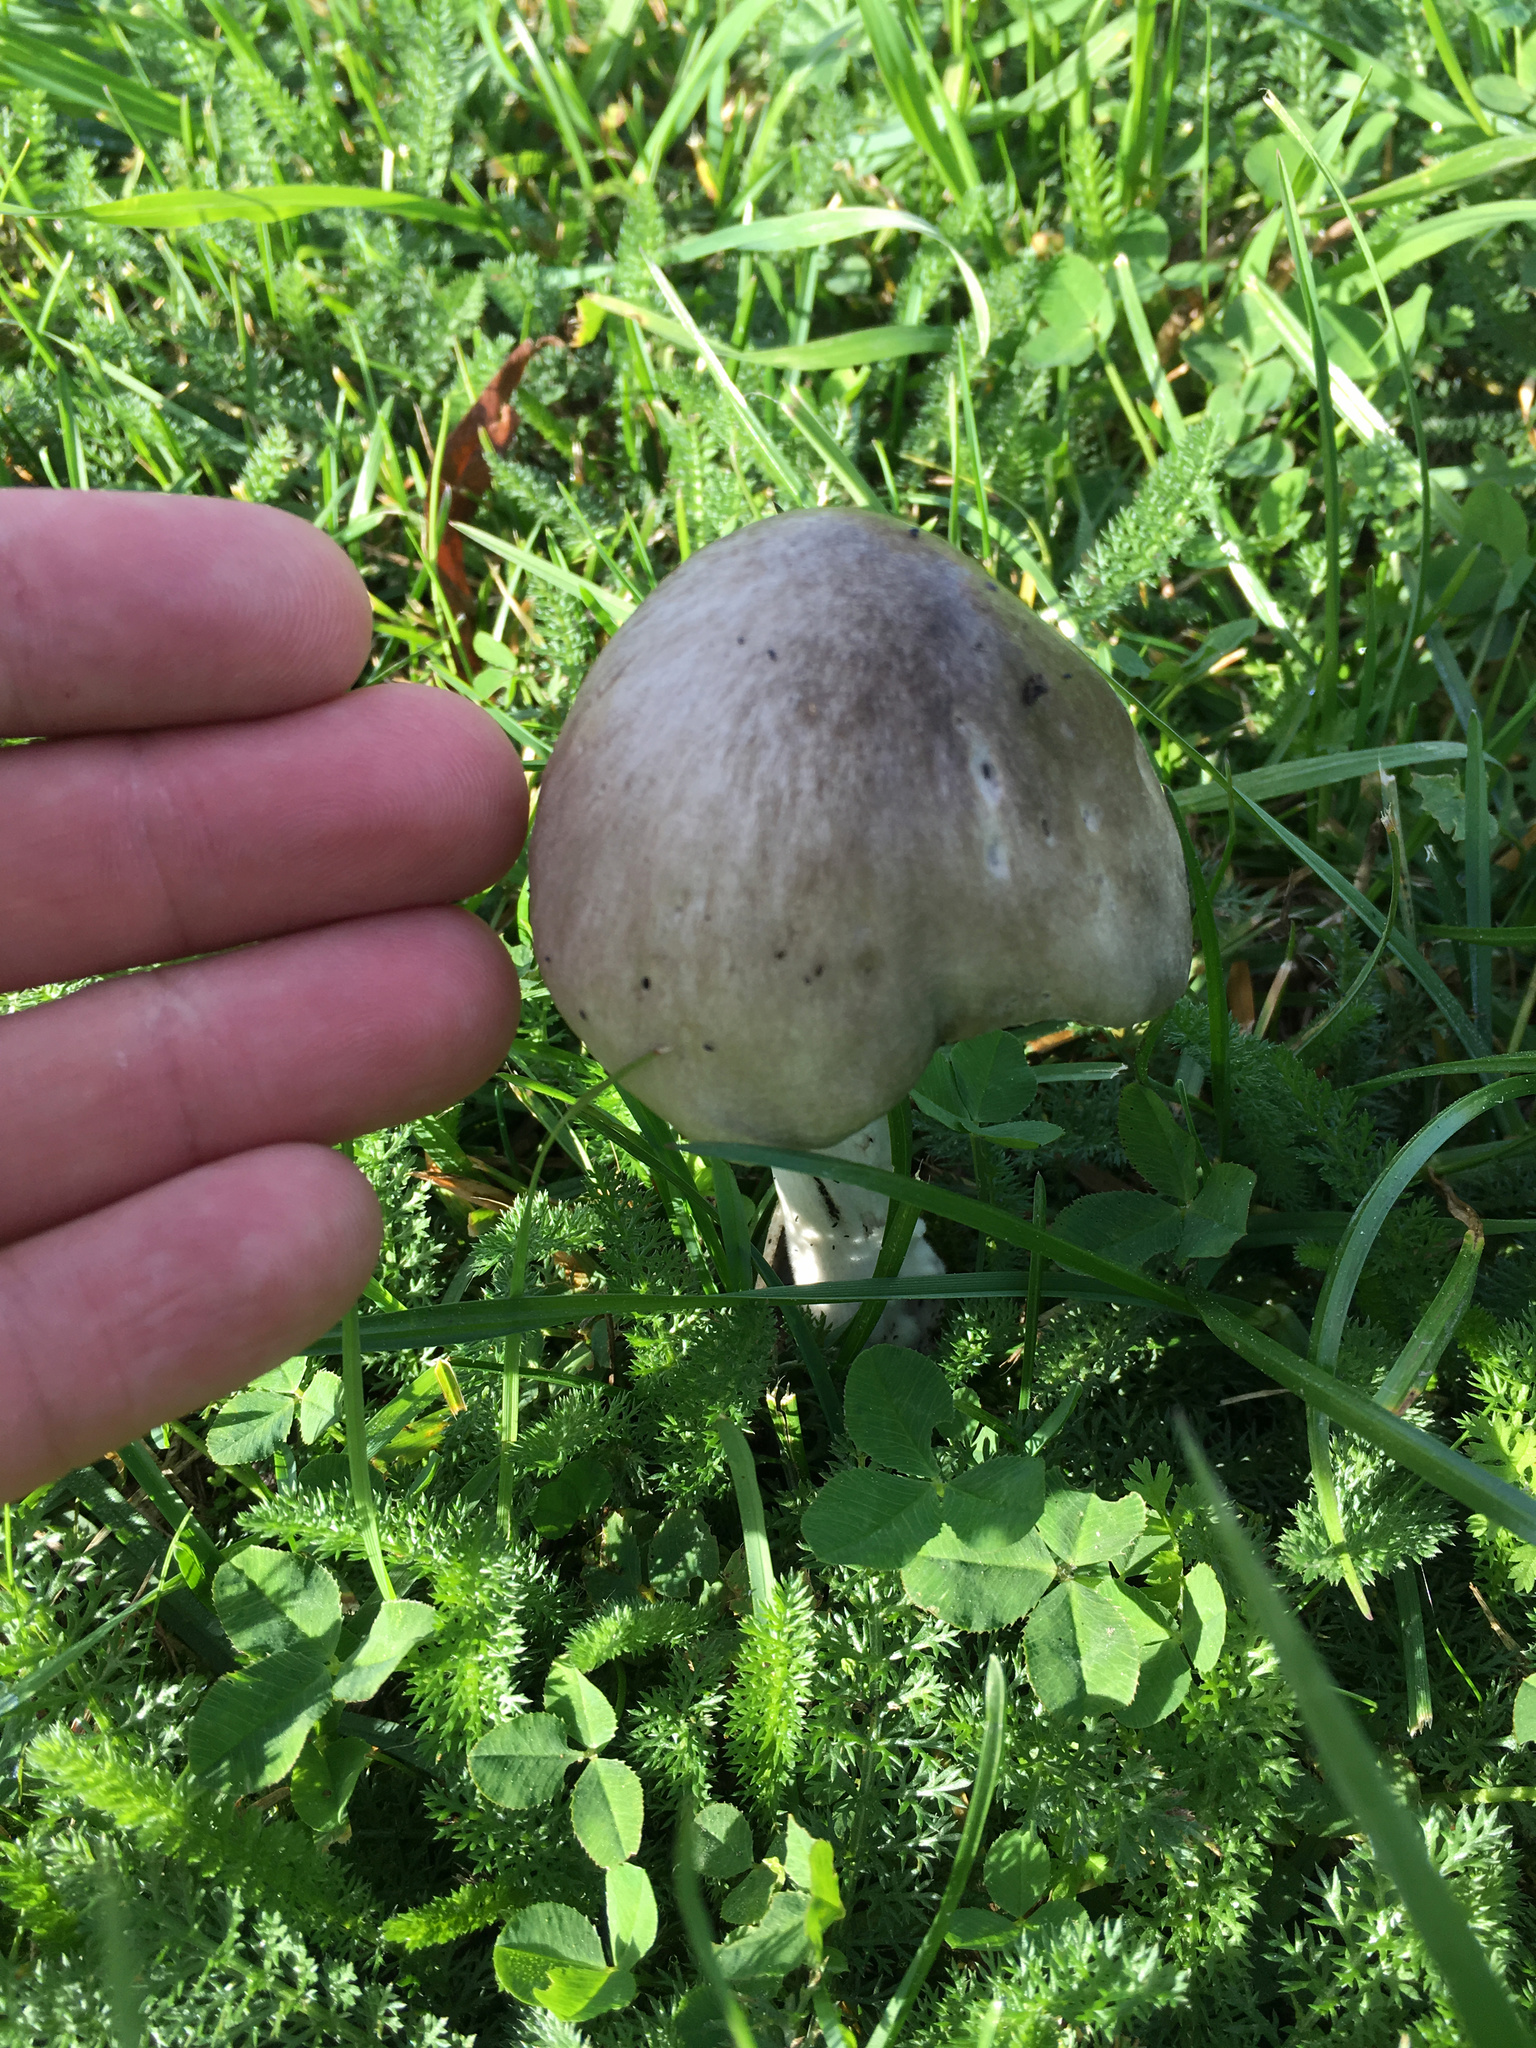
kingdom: Fungi
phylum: Basidiomycota
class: Agaricomycetes
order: Agaricales
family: Pluteaceae
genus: Volvopluteus
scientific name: Volvopluteus gloiocephalus
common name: Stubble rosegill
